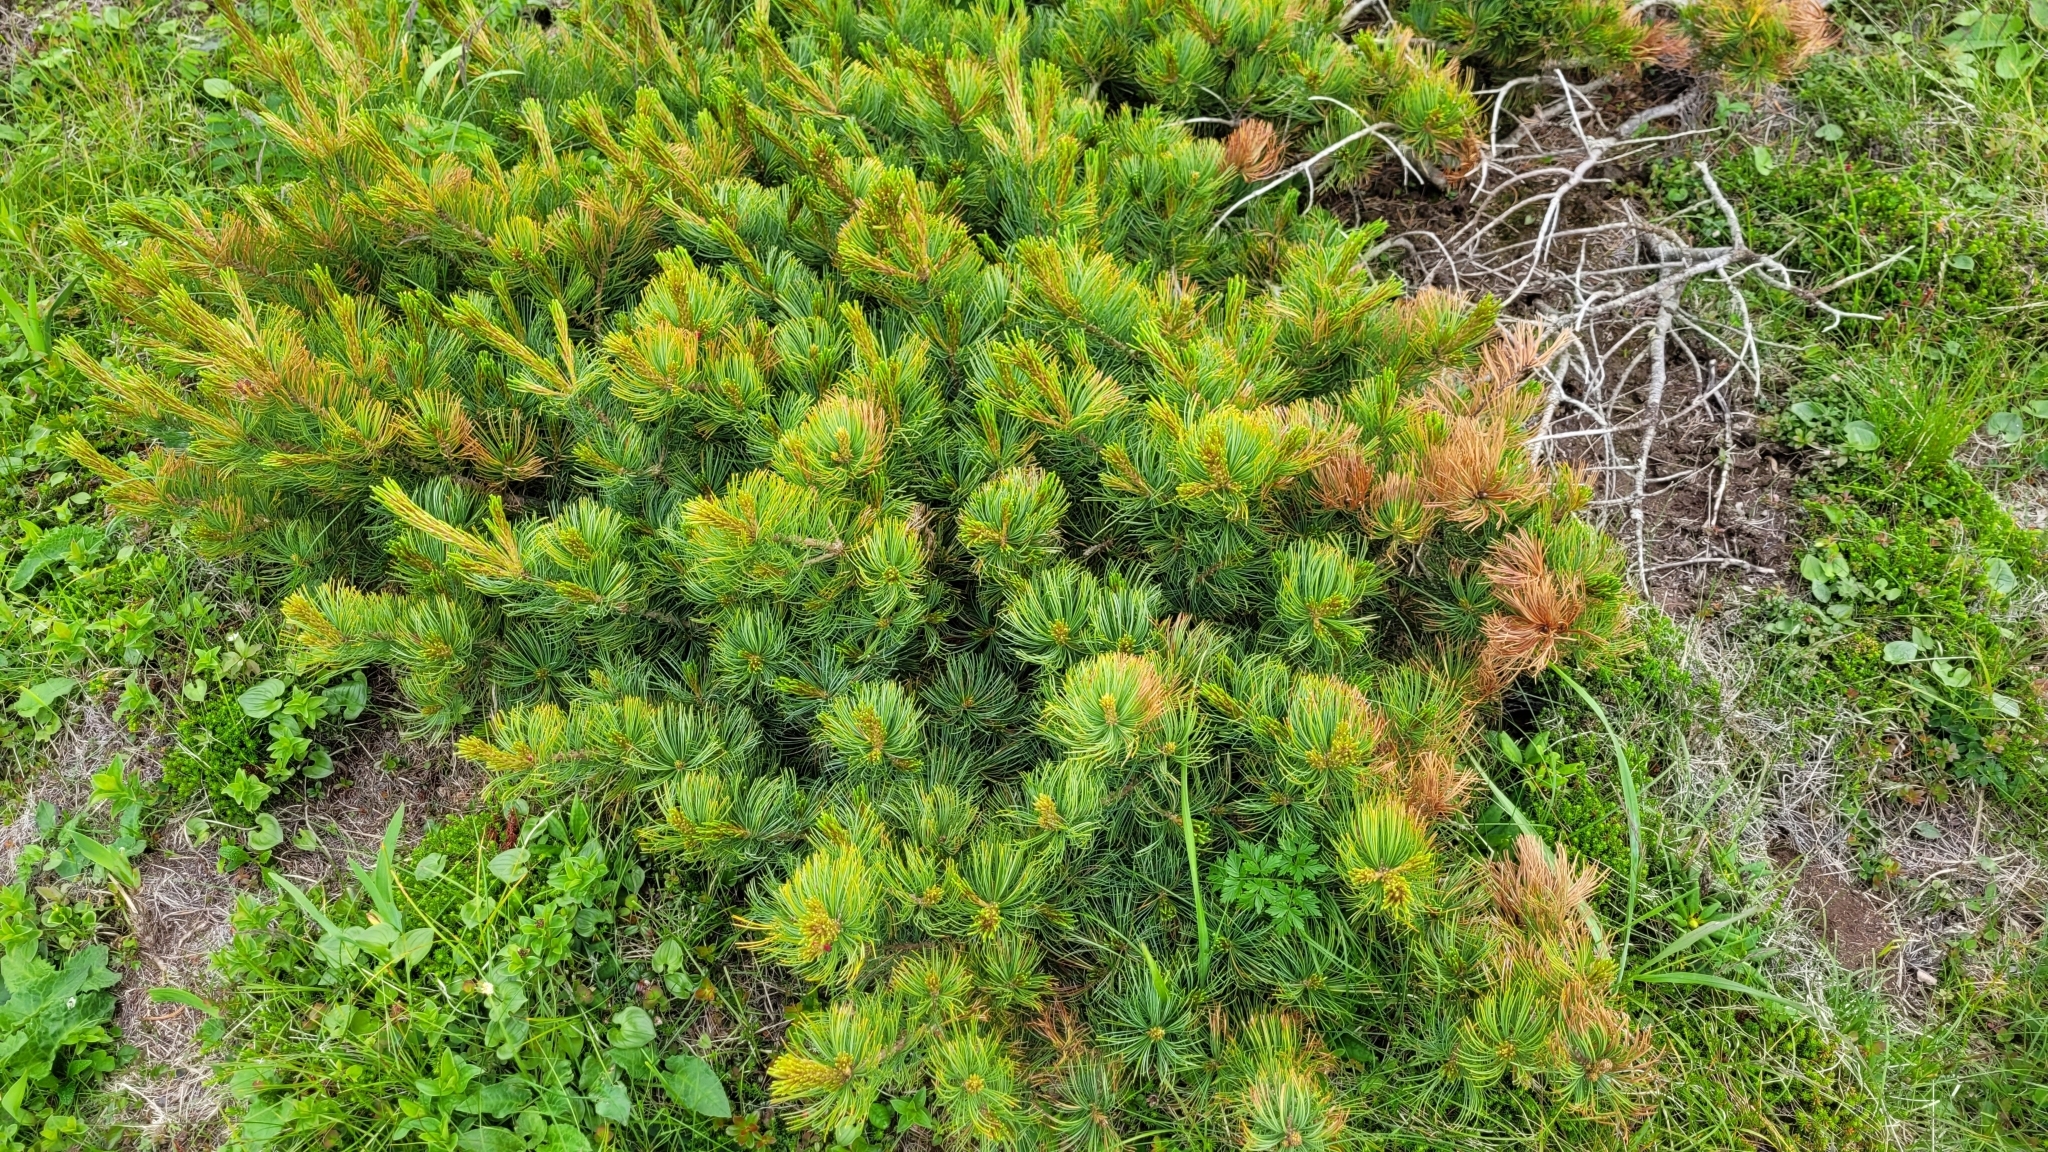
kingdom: Plantae
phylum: Tracheophyta
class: Pinopsida
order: Pinales
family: Pinaceae
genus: Pinus
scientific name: Pinus pumila
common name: Dwarf siberian pine
